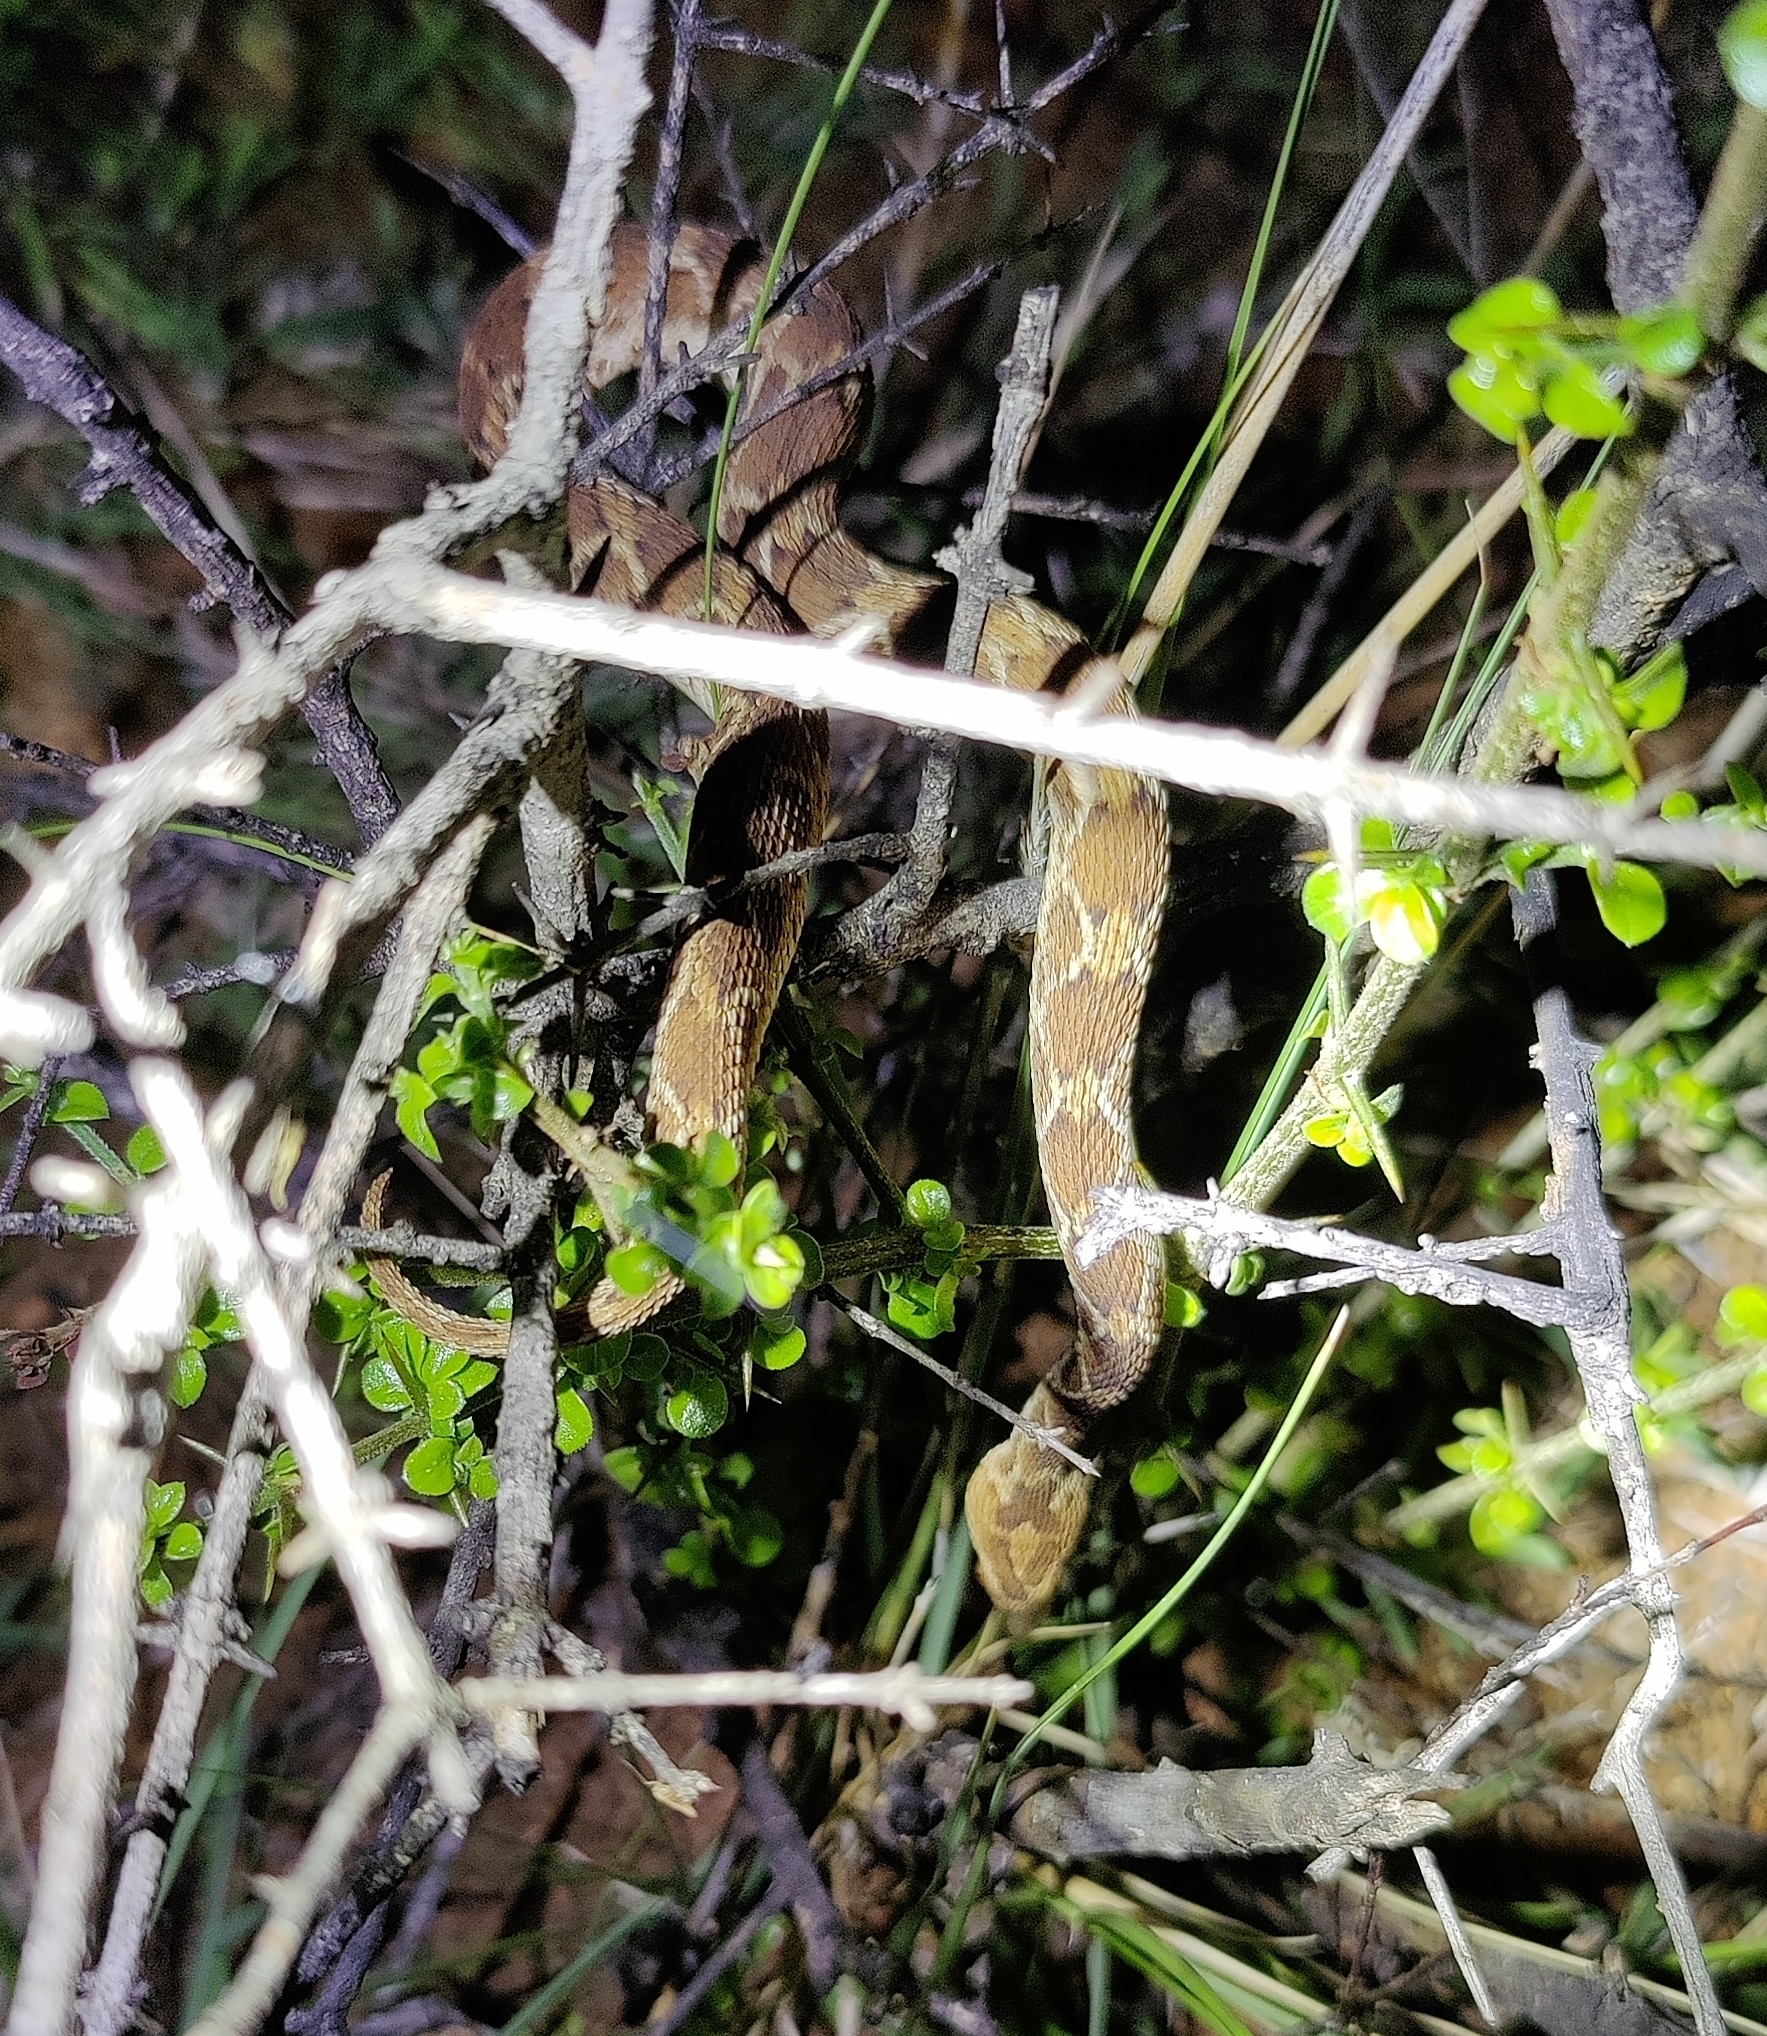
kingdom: Animalia
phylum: Chordata
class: Squamata
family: Viperidae
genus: Echis
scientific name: Echis carinatus
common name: Saw-scaled viper
